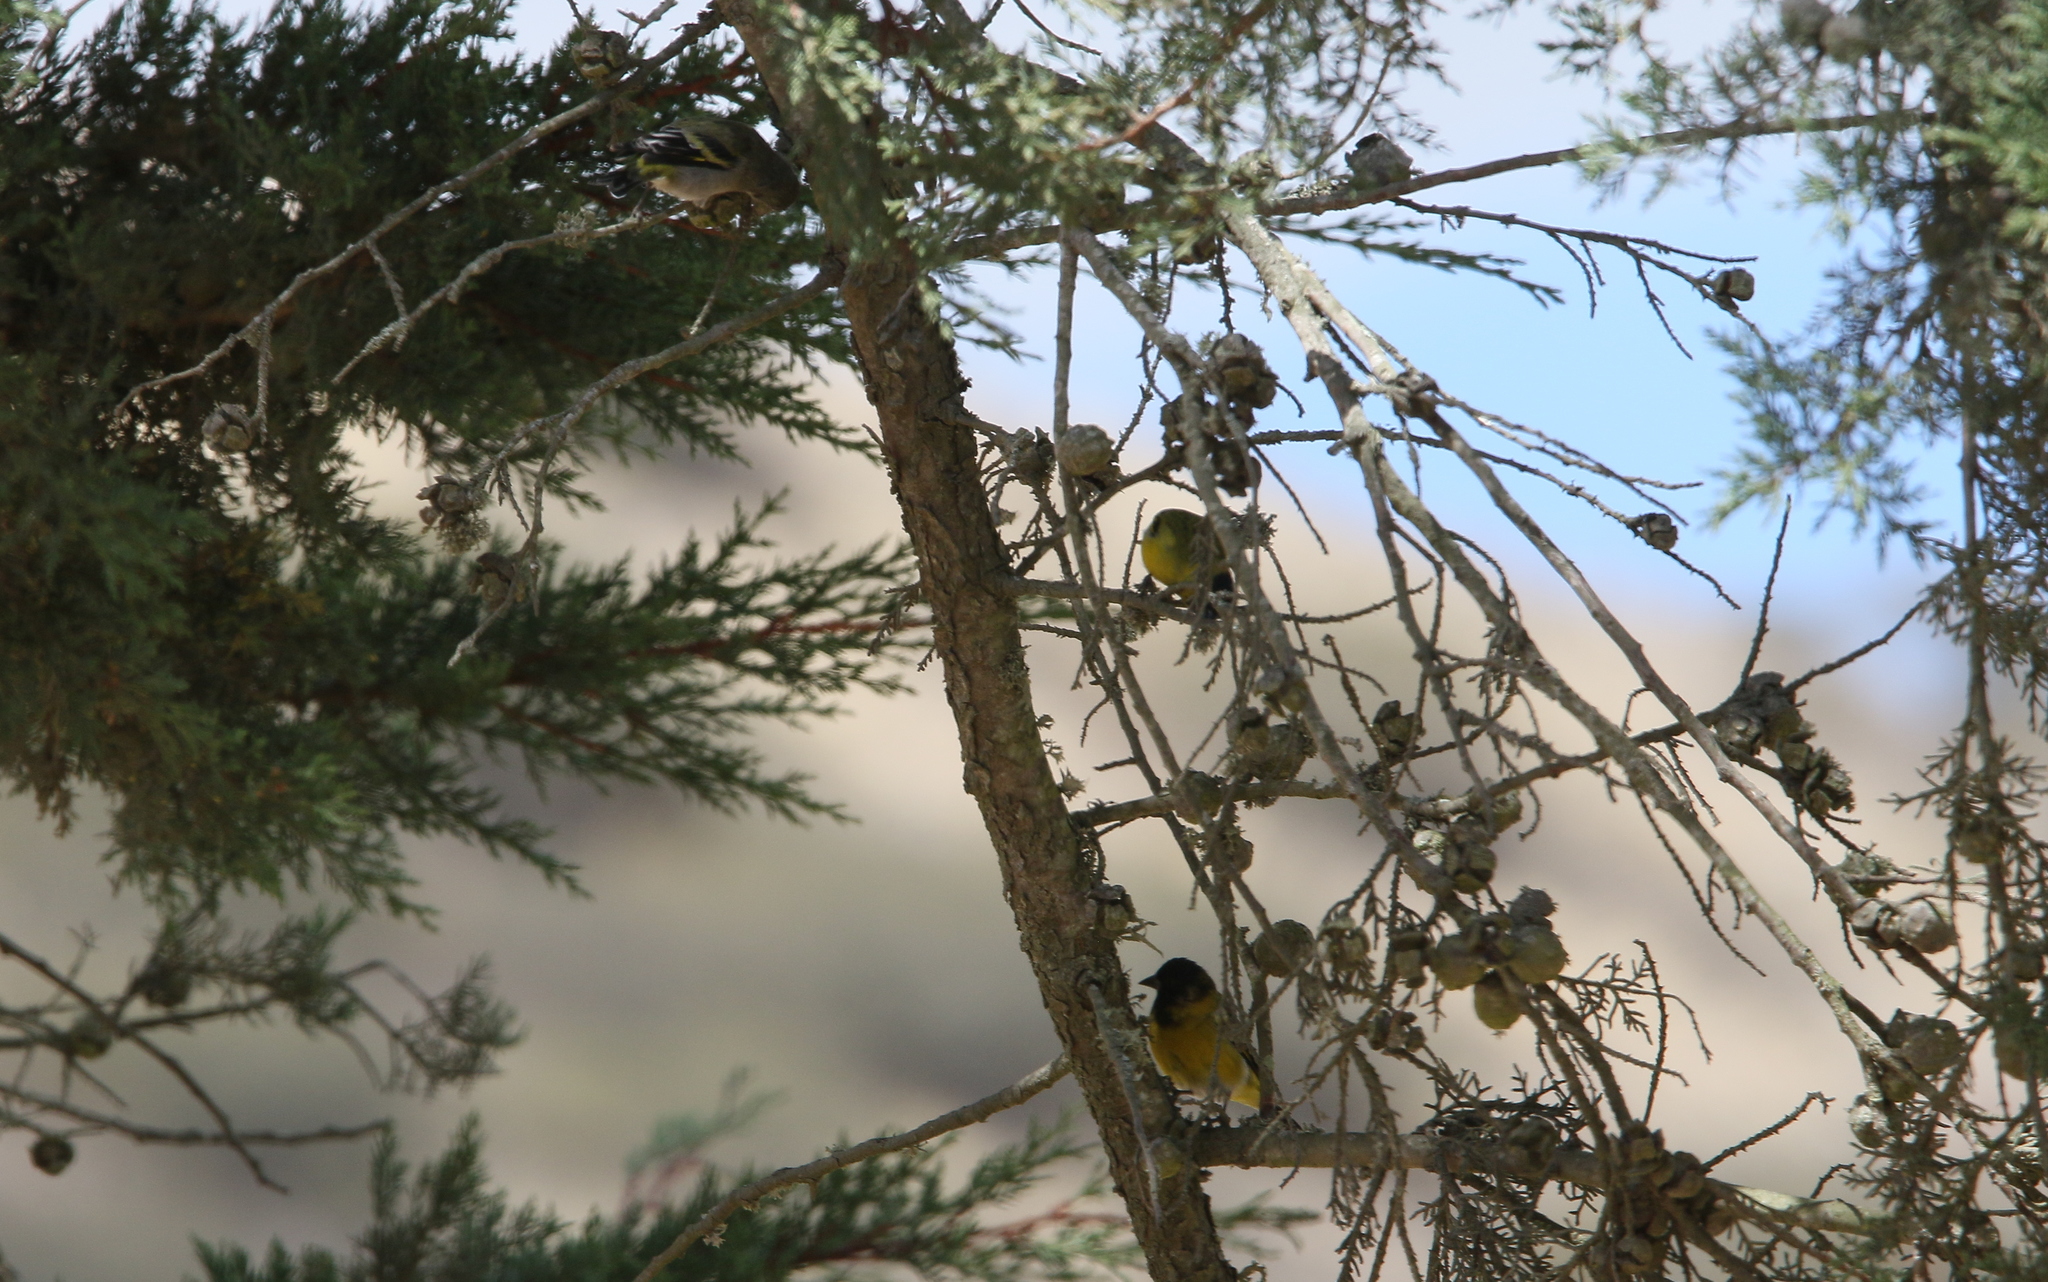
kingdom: Animalia
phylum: Chordata
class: Aves
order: Passeriformes
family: Fringillidae
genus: Spinus
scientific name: Spinus magellanicus
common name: Hooded siskin
